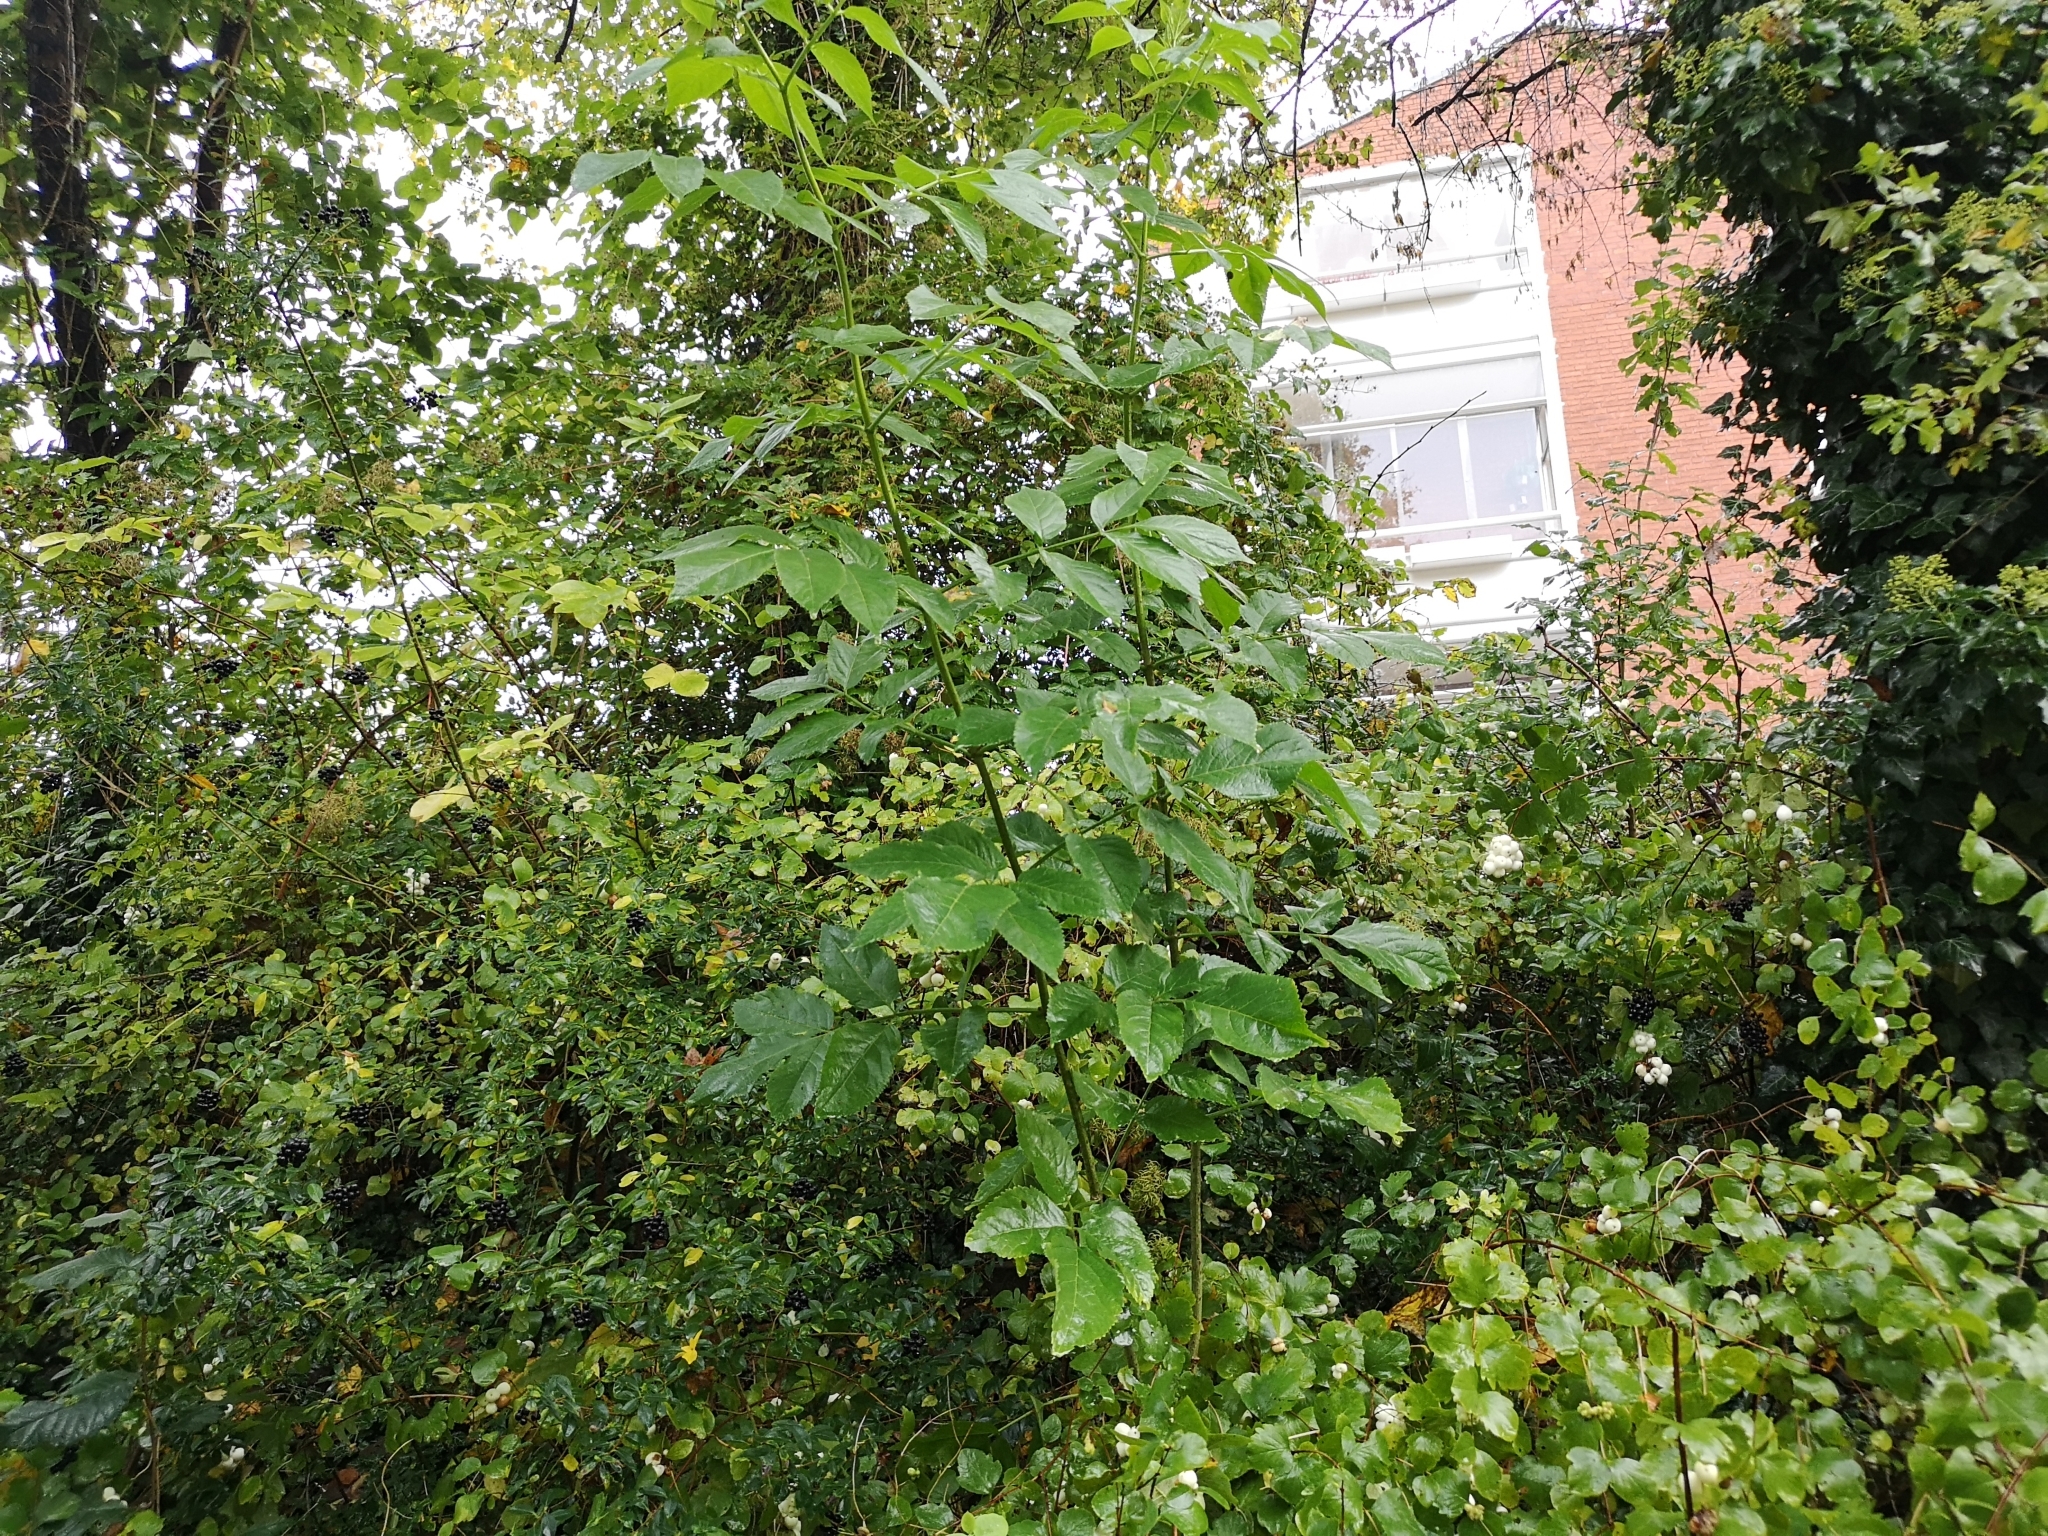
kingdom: Plantae
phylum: Tracheophyta
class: Magnoliopsida
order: Dipsacales
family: Viburnaceae
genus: Sambucus
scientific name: Sambucus nigra
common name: Elder
